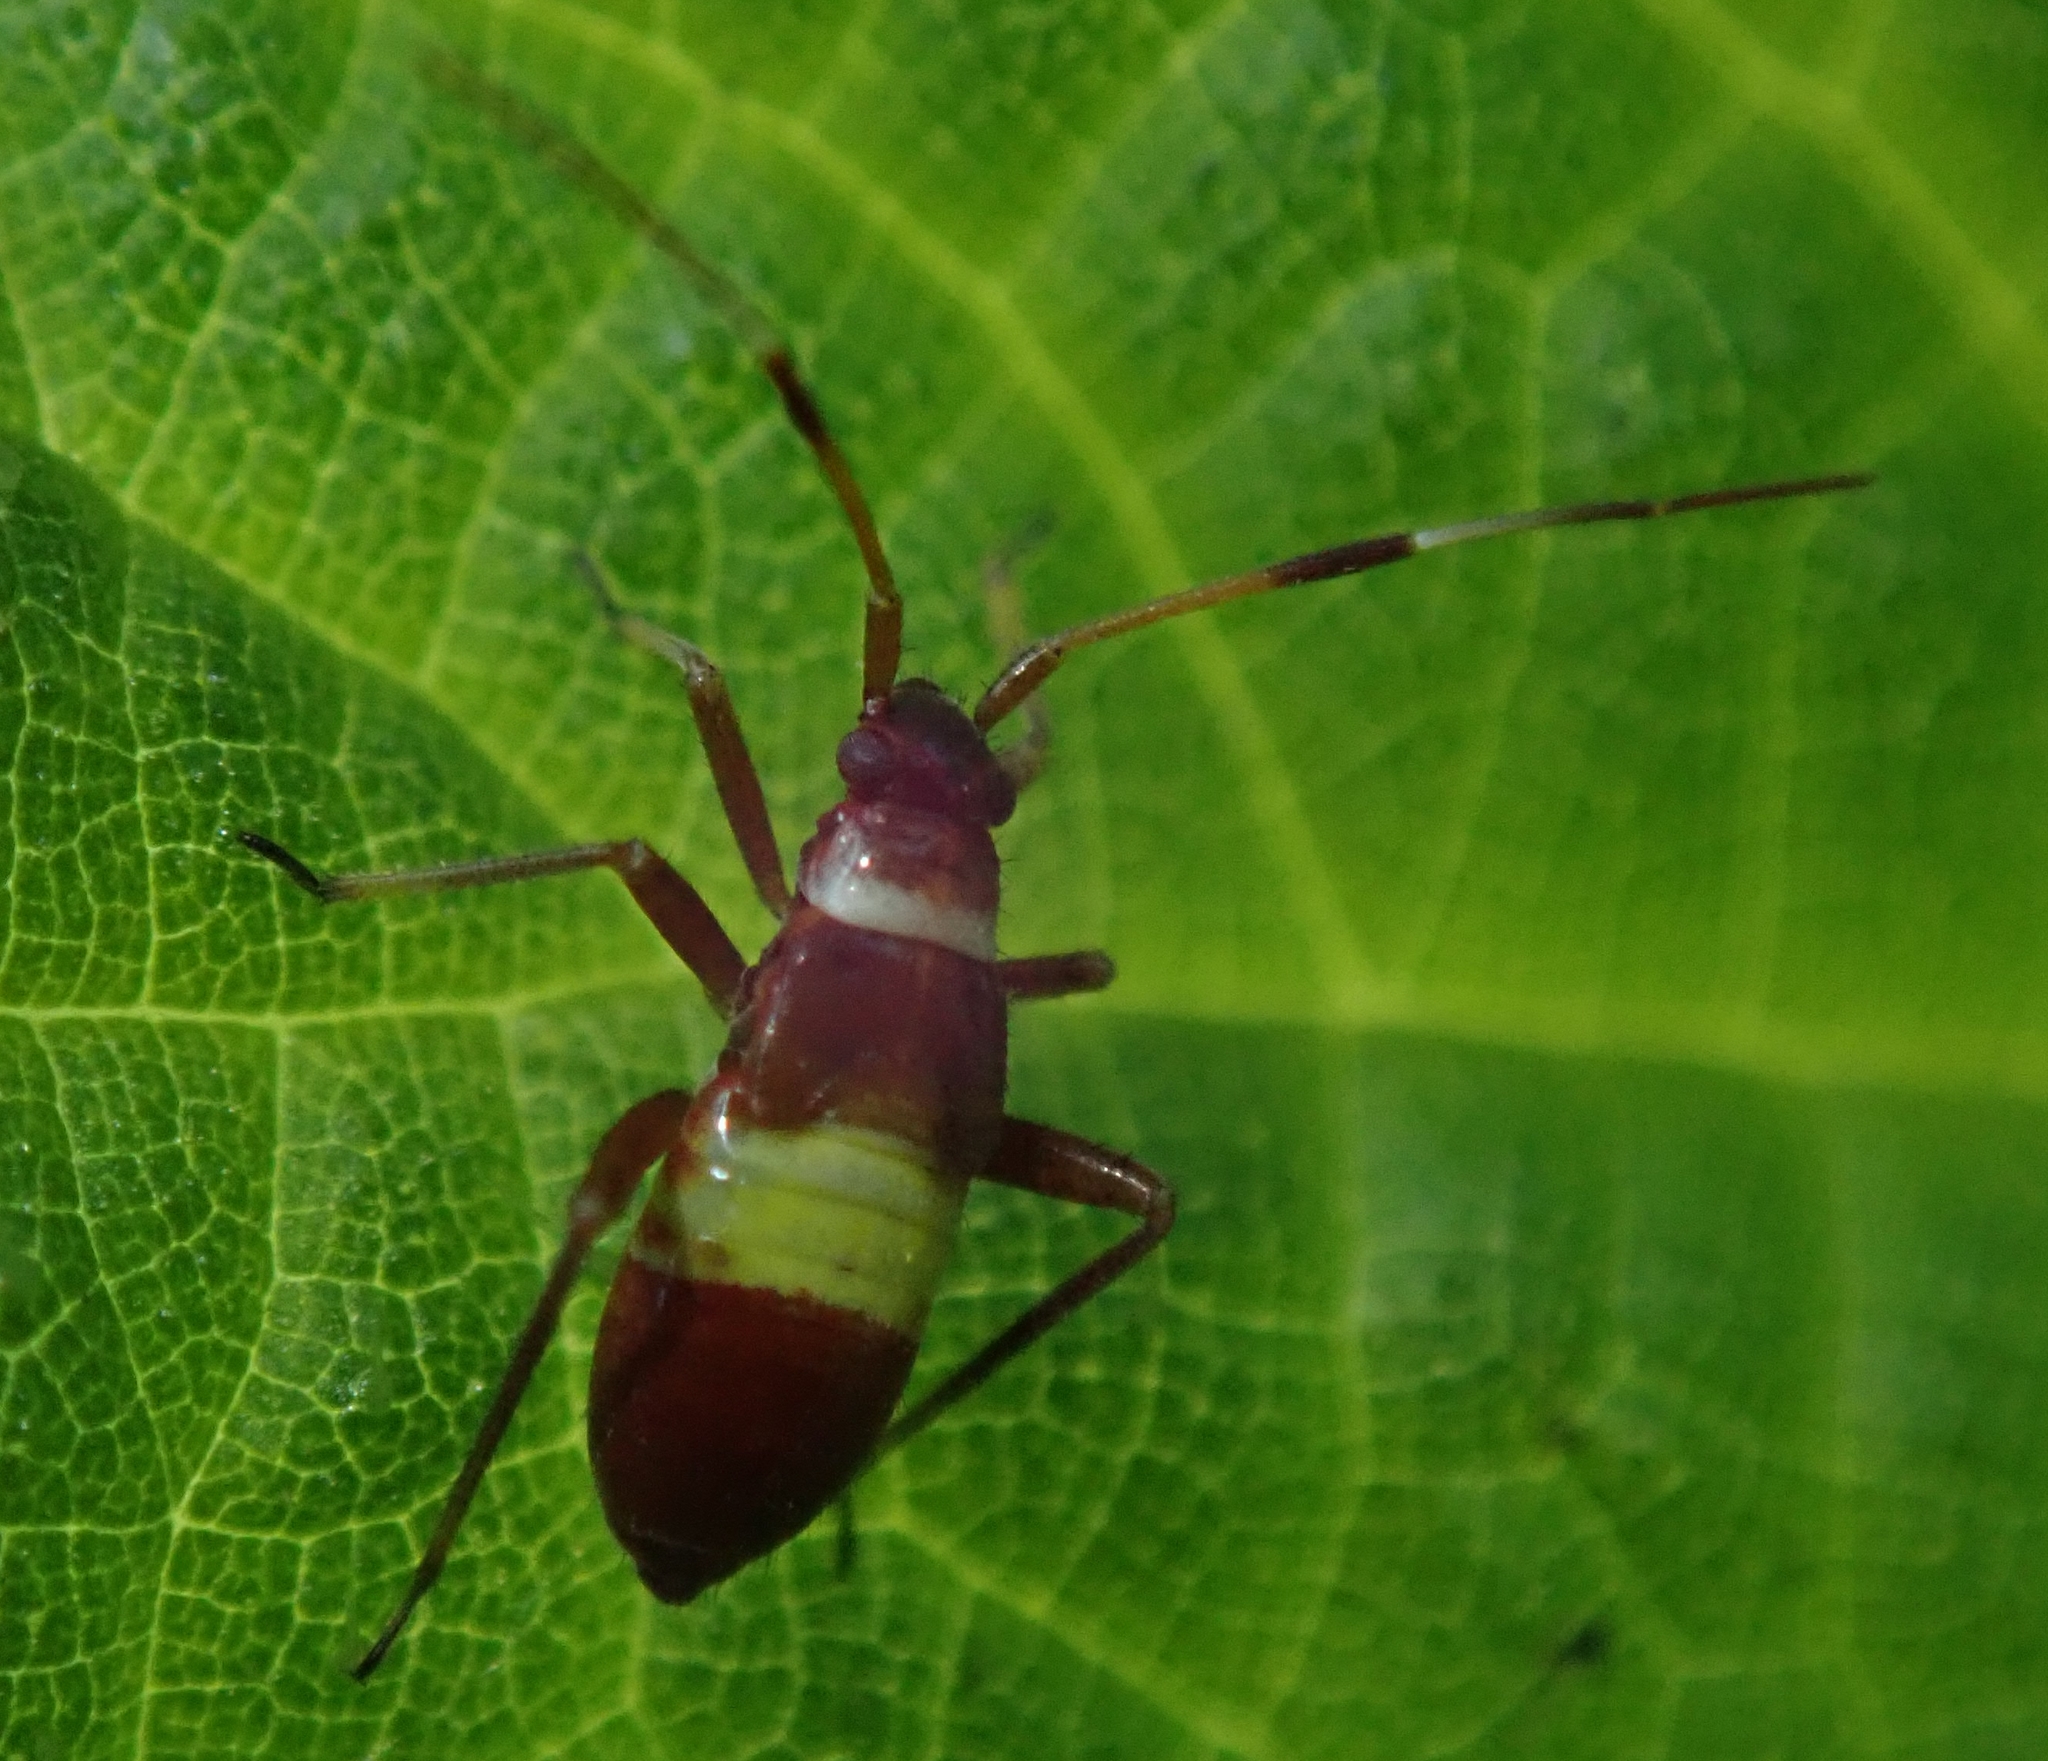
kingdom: Animalia
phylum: Arthropoda
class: Insecta
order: Hemiptera
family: Miridae
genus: Closterotomus
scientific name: Closterotomus biclavatus
